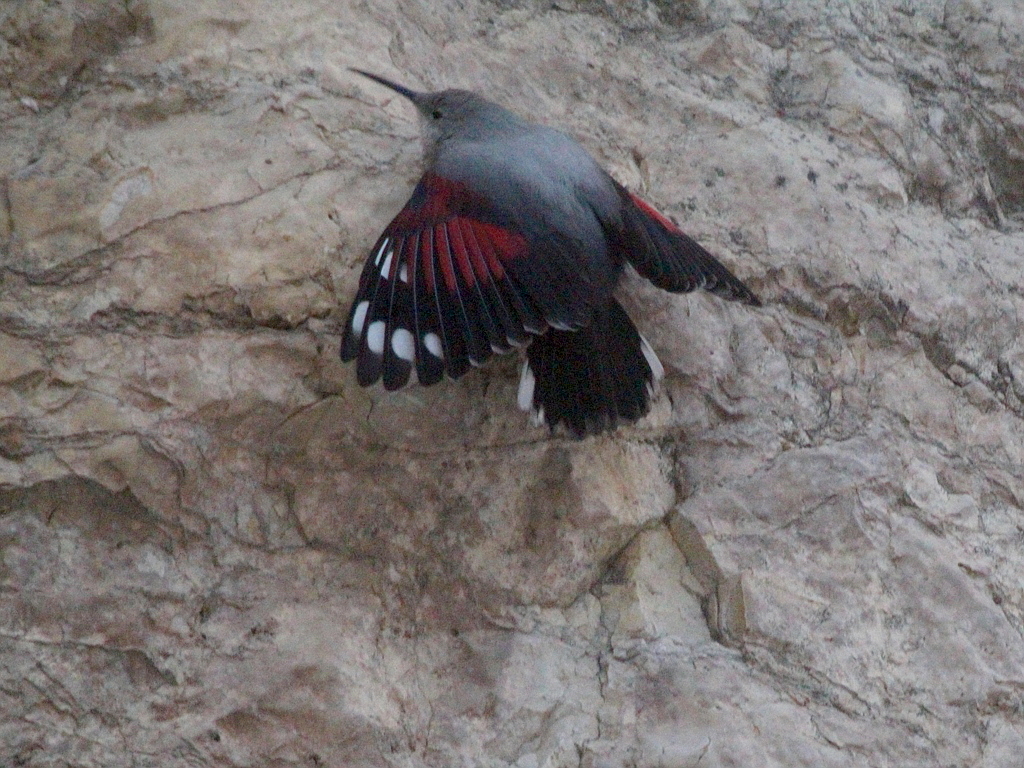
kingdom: Animalia
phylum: Chordata
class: Aves
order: Passeriformes
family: Tichodromidae
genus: Tichodroma
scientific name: Tichodroma muraria
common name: Wallcreeper
